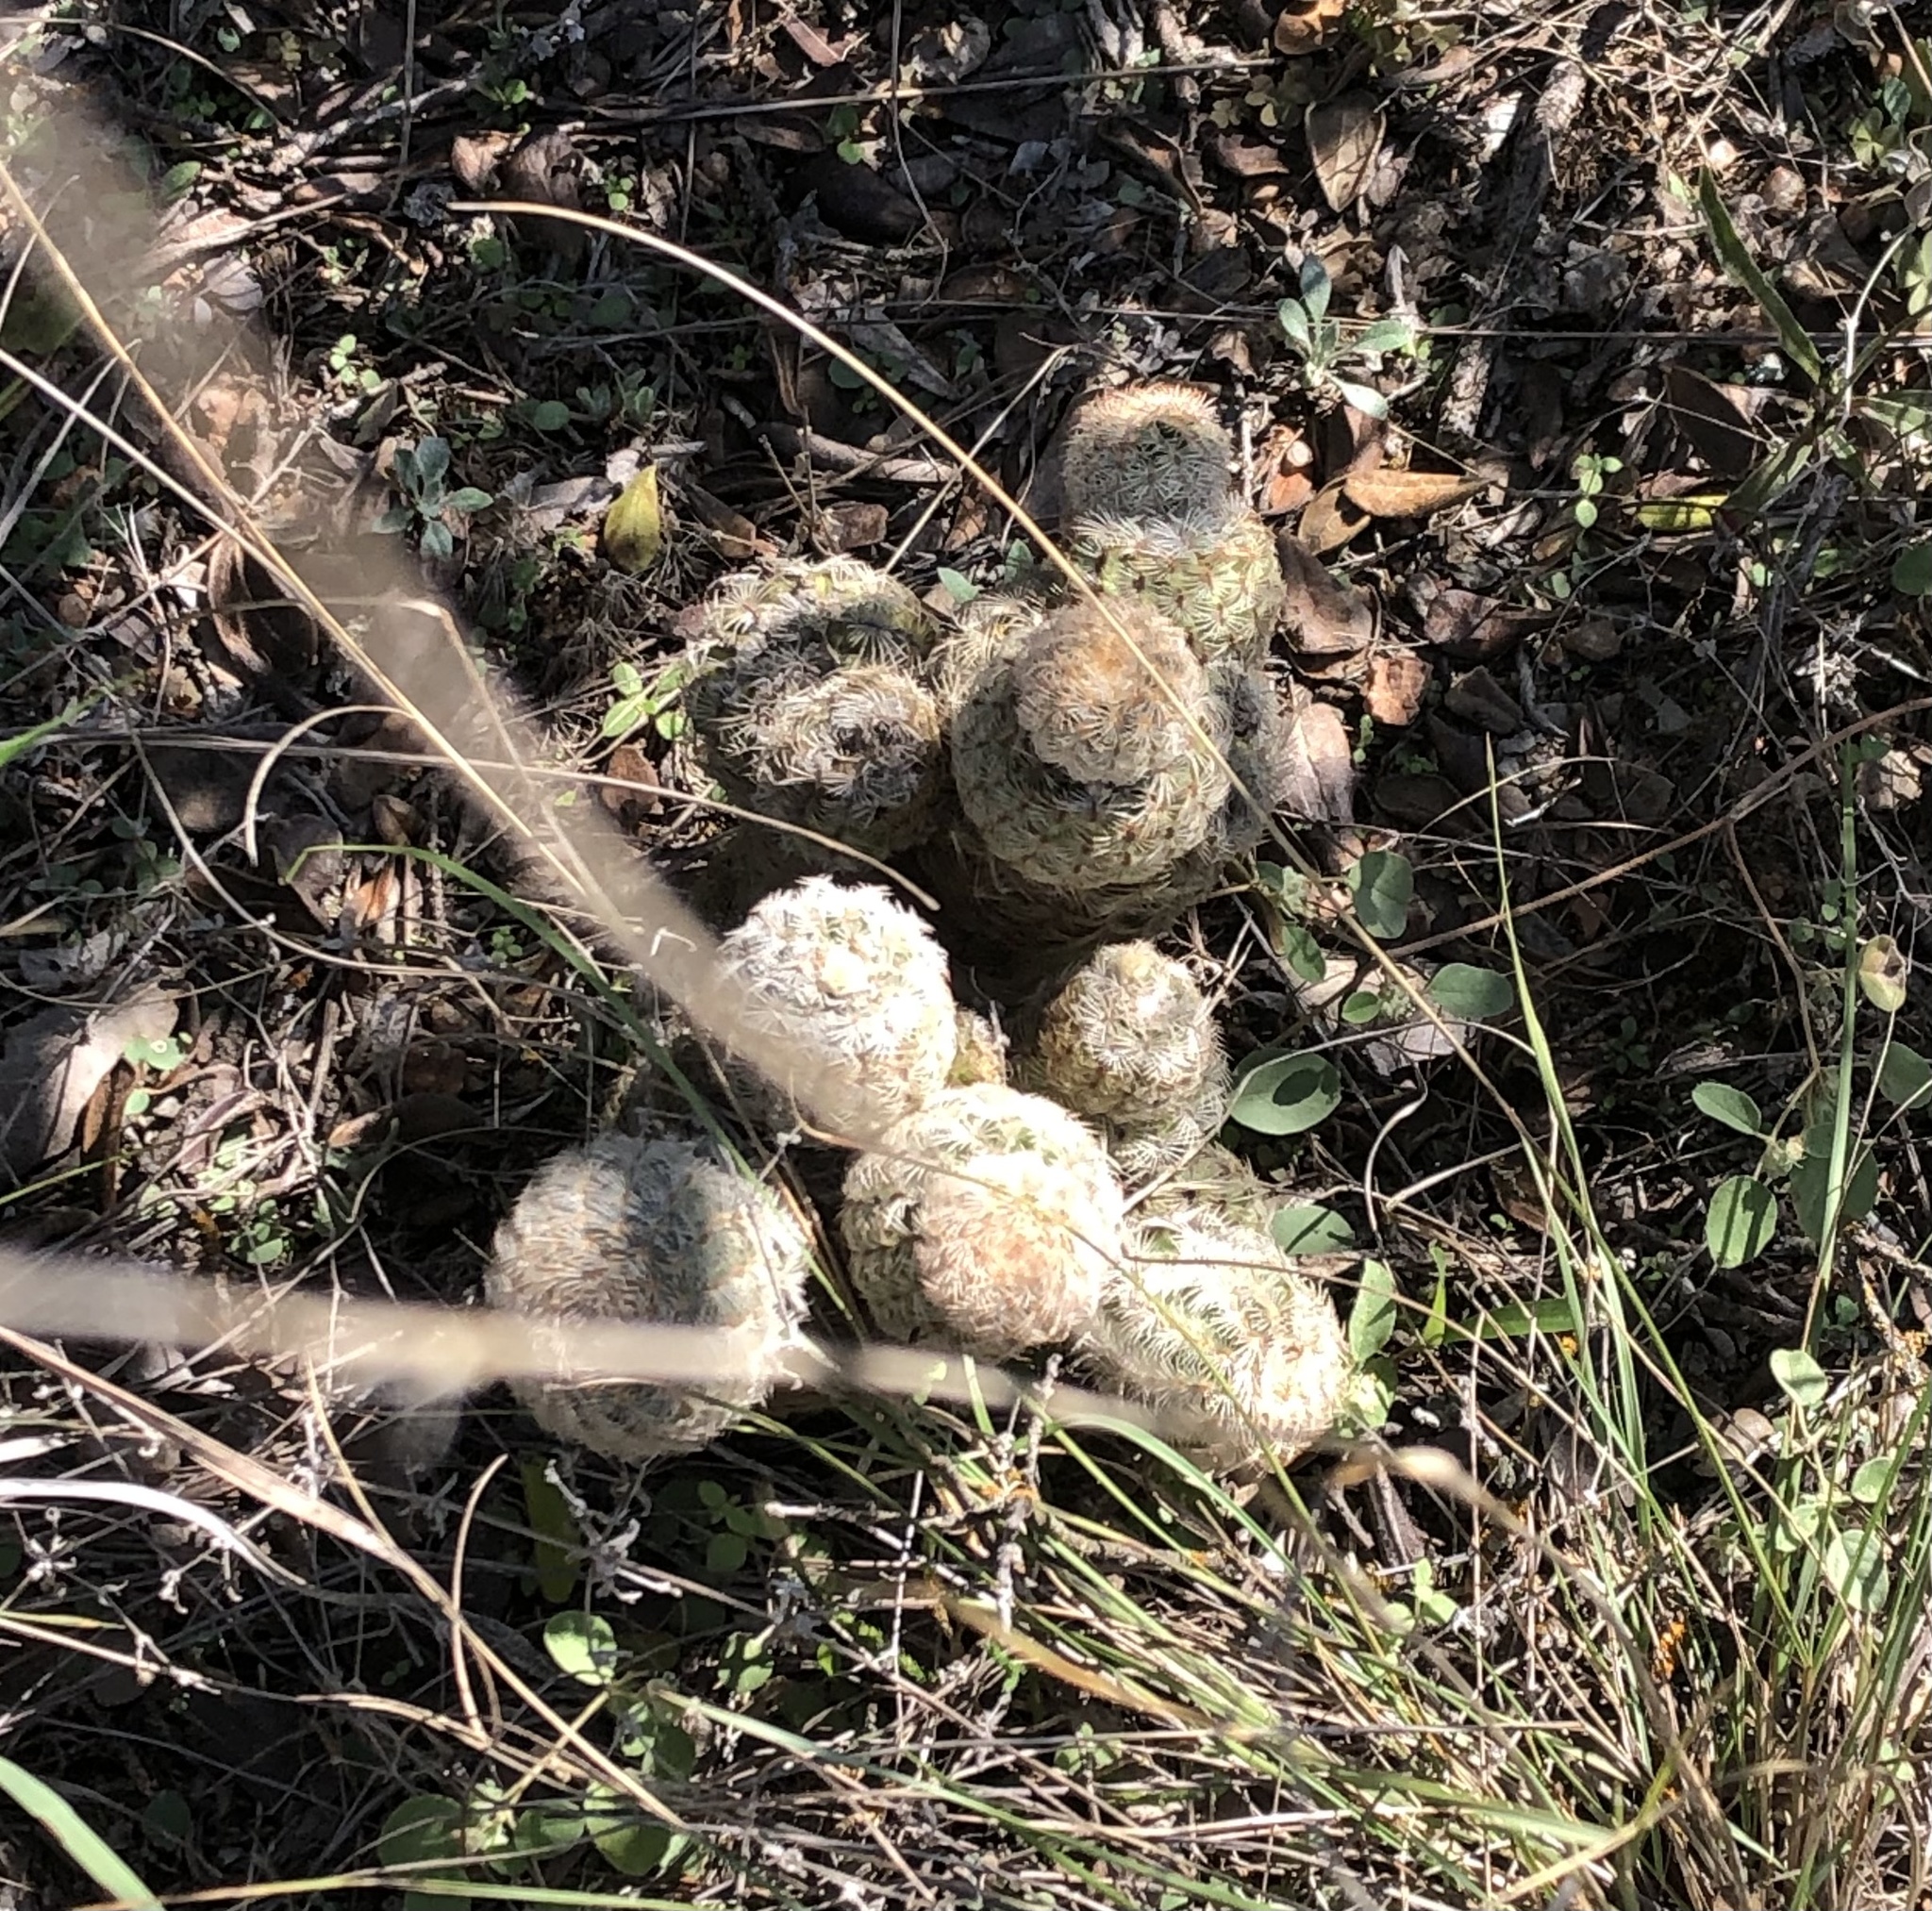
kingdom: Plantae
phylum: Tracheophyta
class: Magnoliopsida
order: Caryophyllales
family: Cactaceae
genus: Echinocereus
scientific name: Echinocereus reichenbachii
